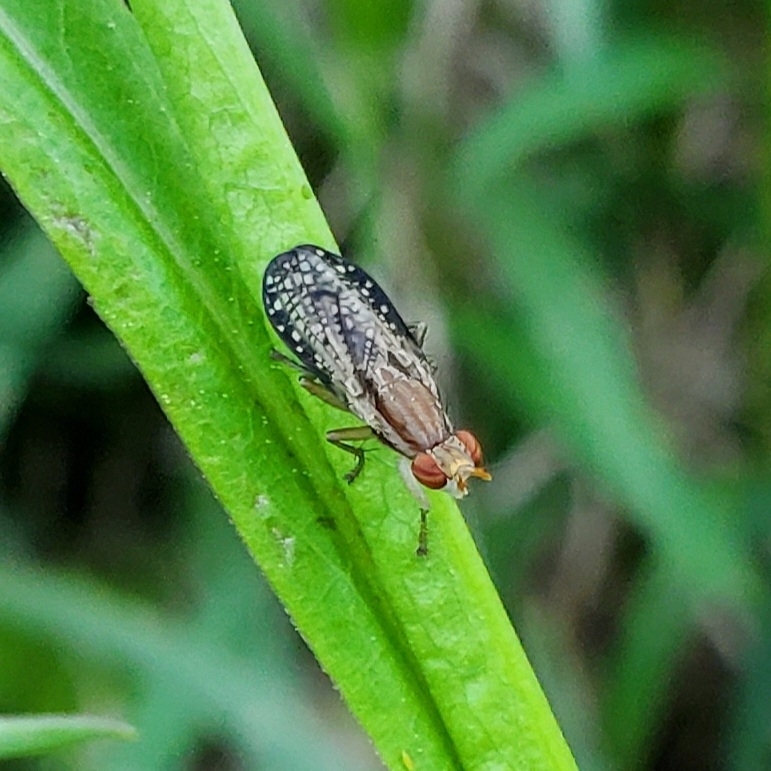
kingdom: Animalia
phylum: Arthropoda
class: Insecta
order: Diptera
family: Sciomyzidae
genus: Trypetoptera
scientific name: Trypetoptera canadensis
